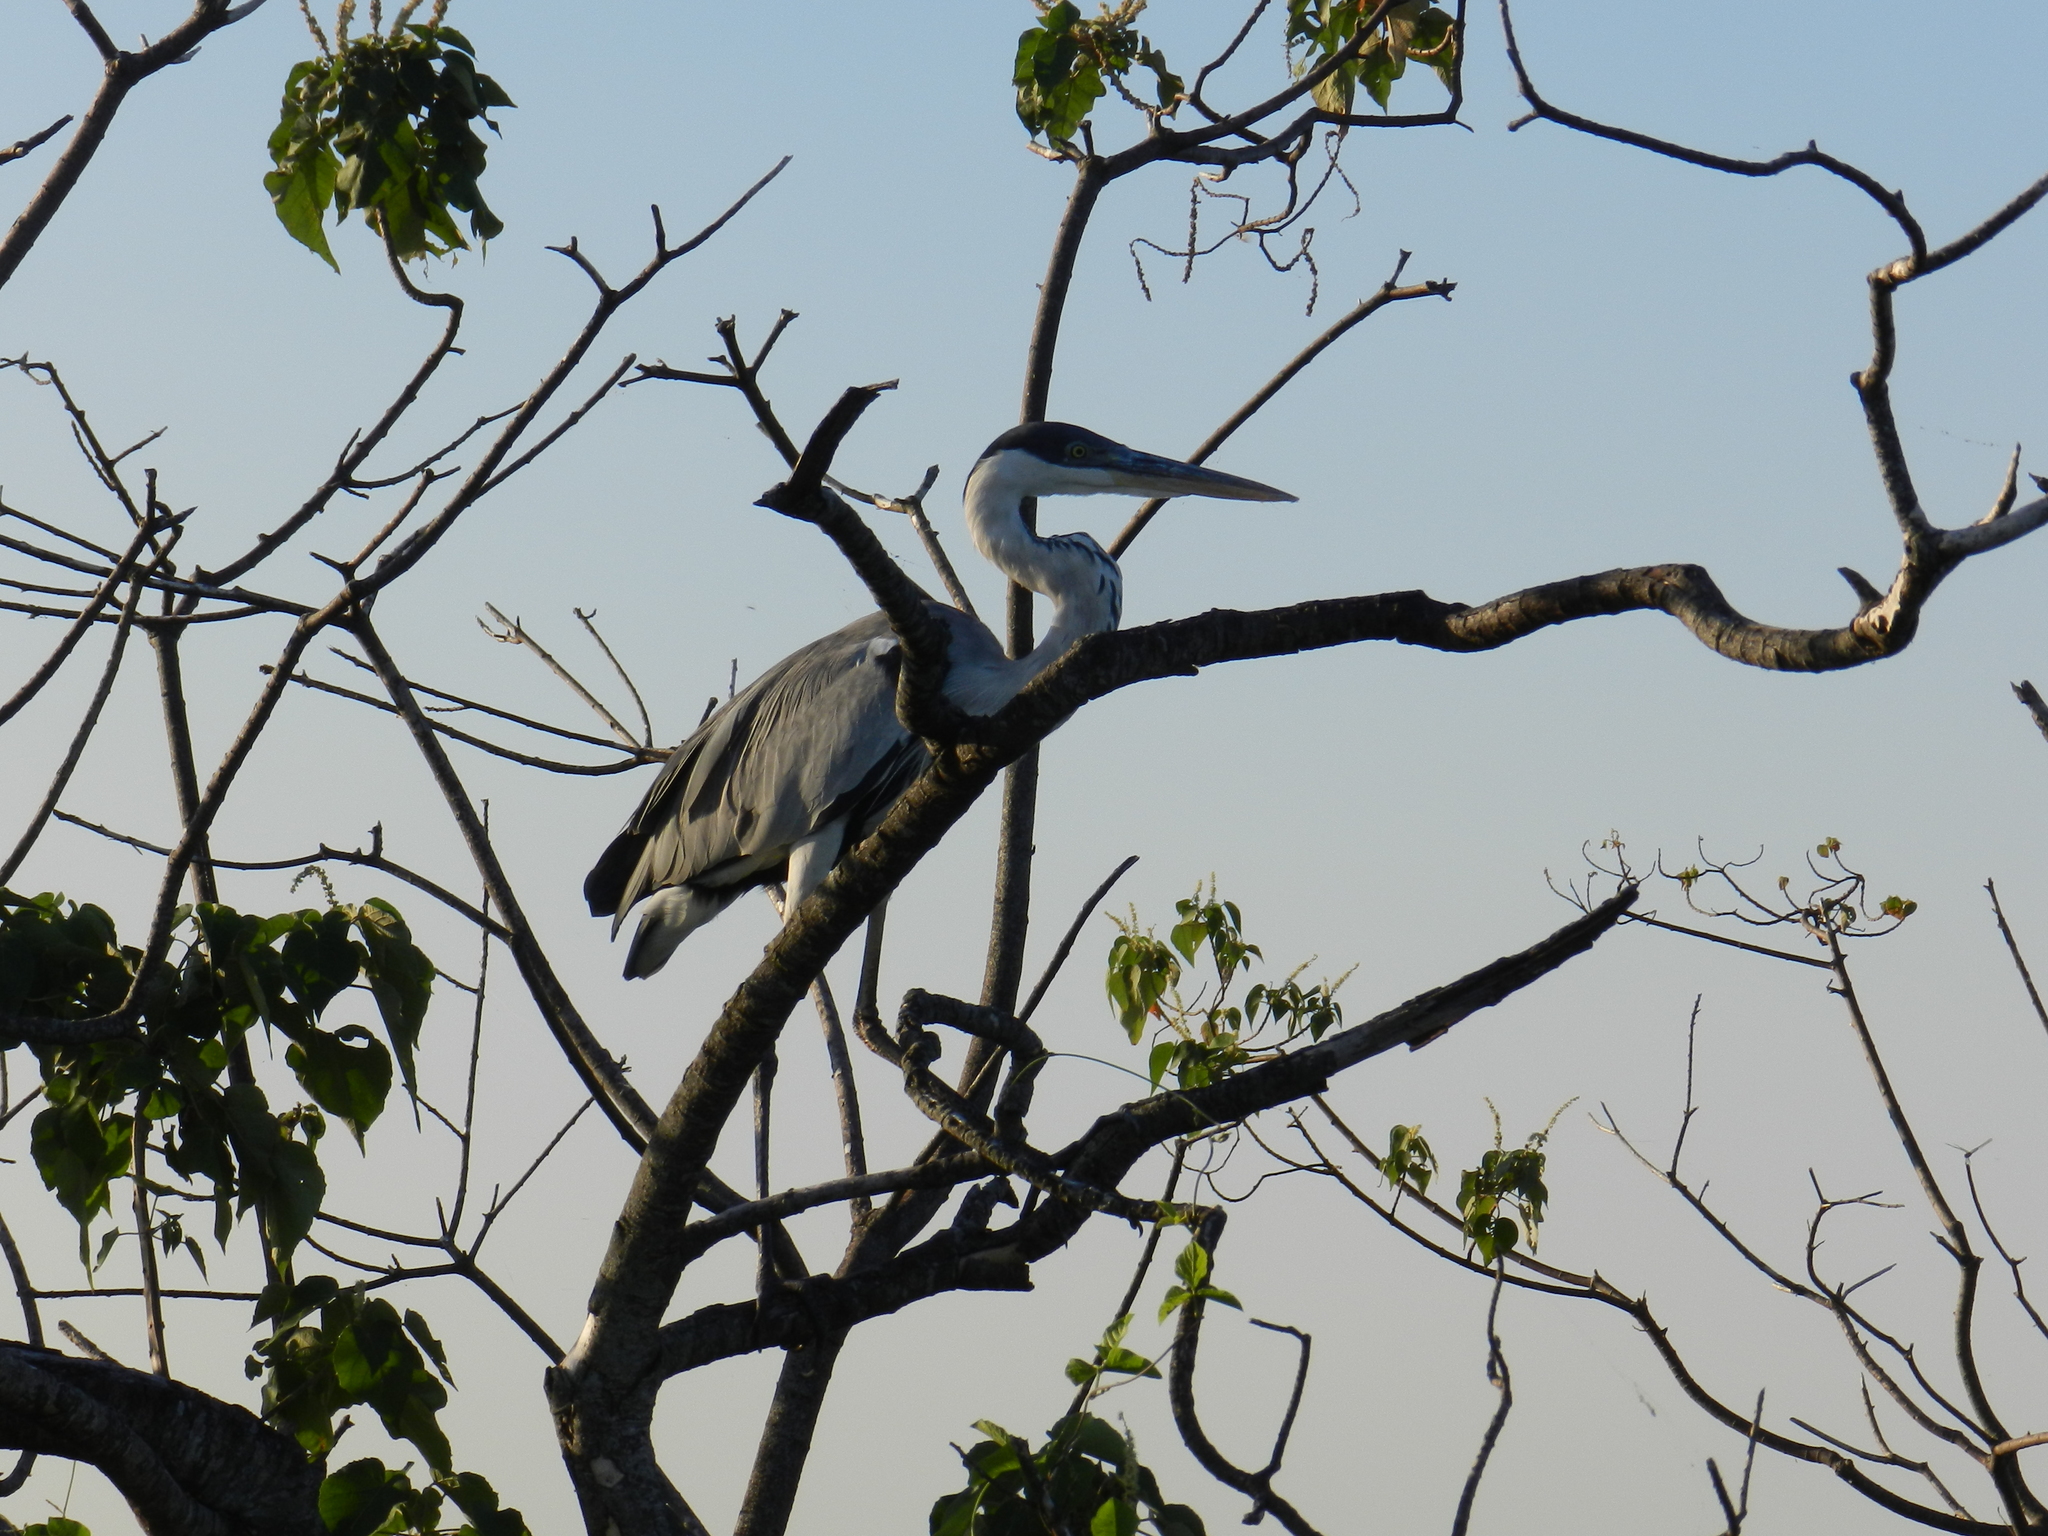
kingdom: Animalia
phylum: Chordata
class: Aves
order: Pelecaniformes
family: Ardeidae
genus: Ardea
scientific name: Ardea cocoi
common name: Cocoi heron
